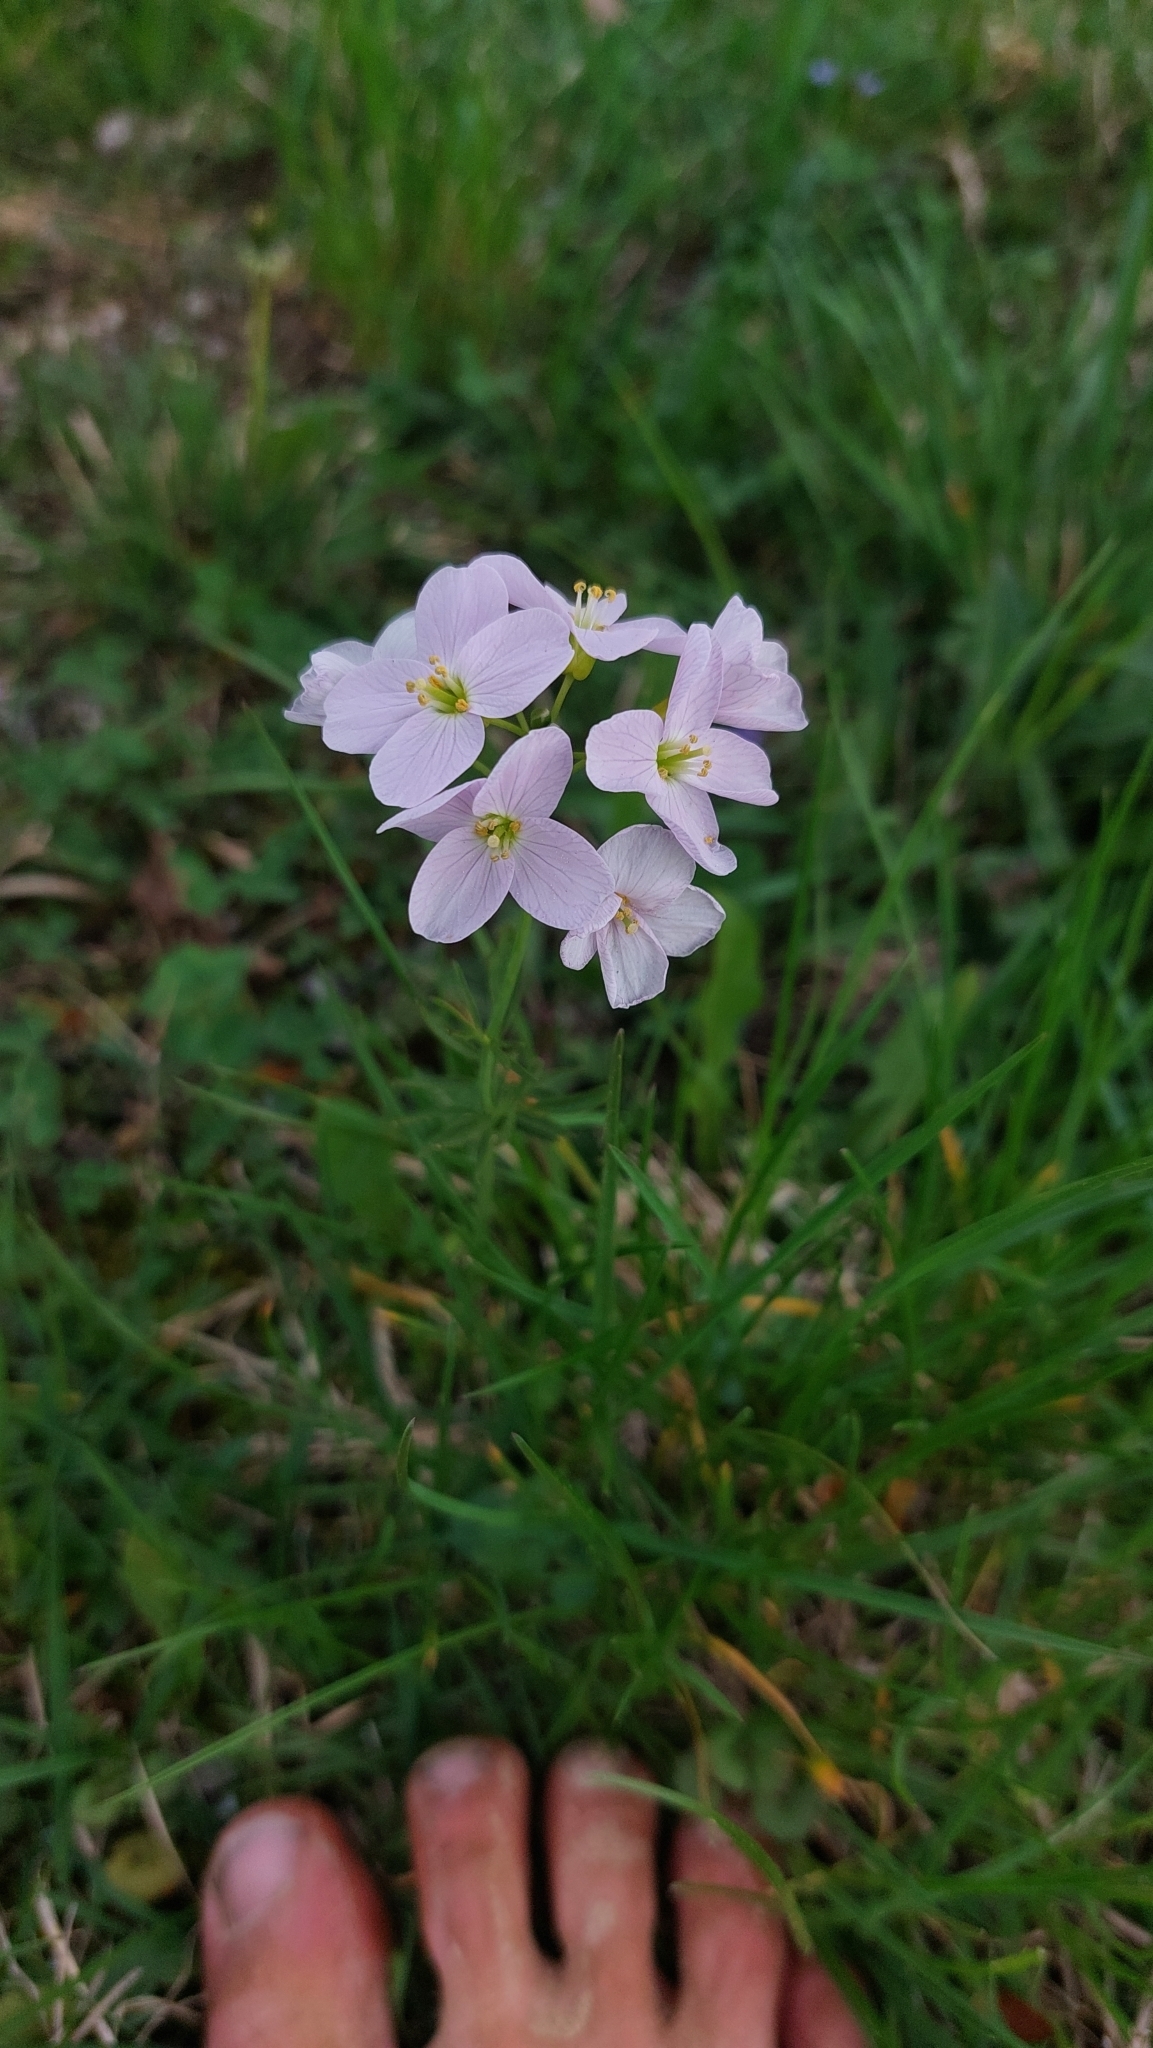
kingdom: Plantae
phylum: Tracheophyta
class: Magnoliopsida
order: Brassicales
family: Brassicaceae
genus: Cardamine
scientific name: Cardamine pratensis
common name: Cuckoo flower
